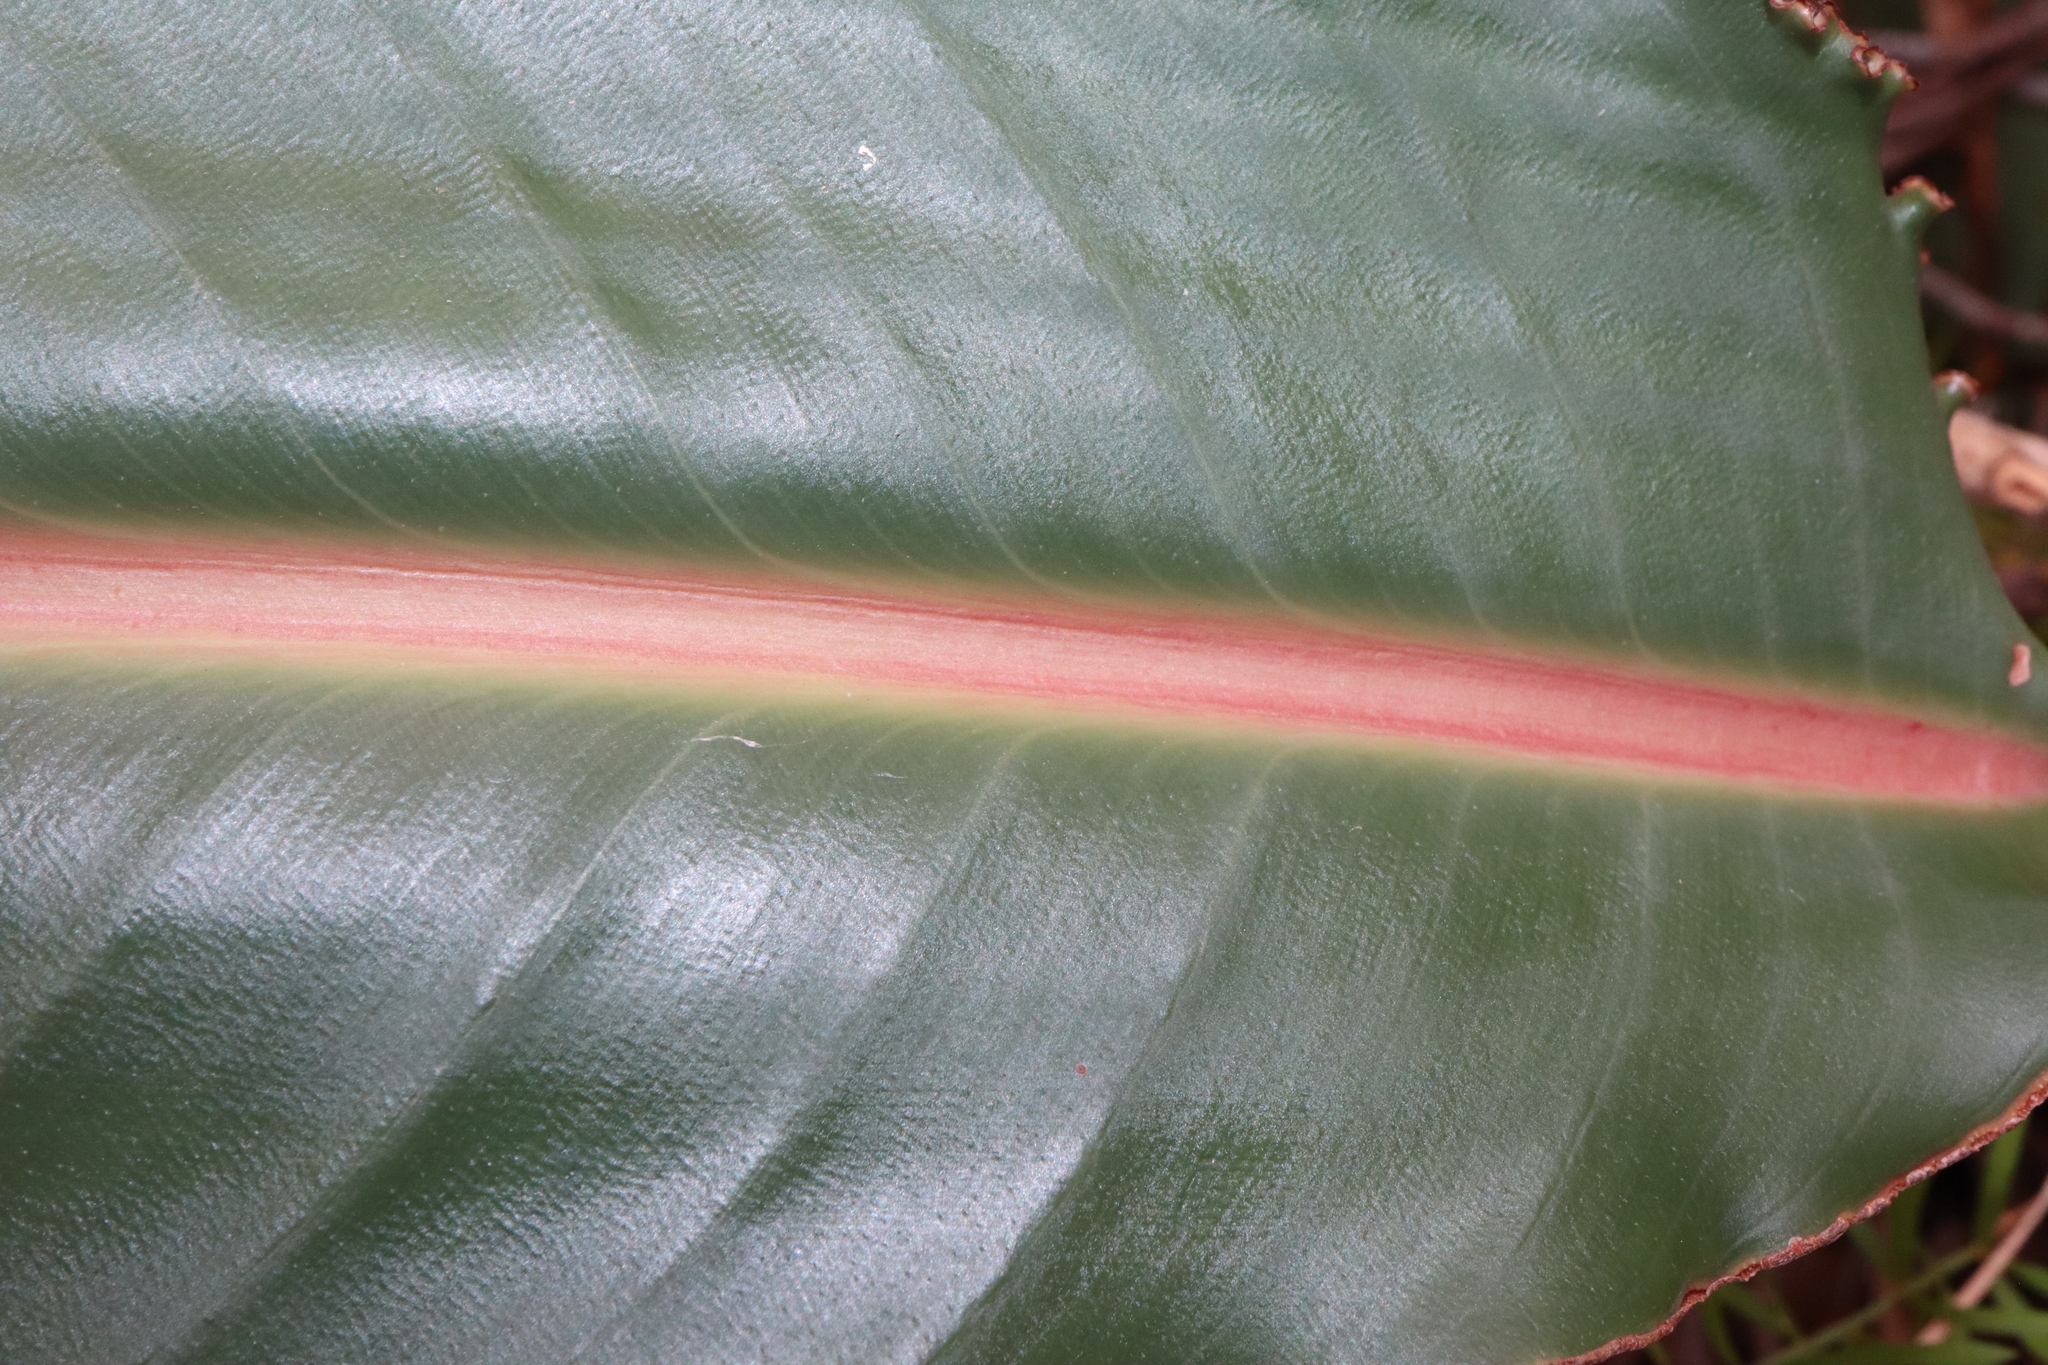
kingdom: Plantae
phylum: Tracheophyta
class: Liliopsida
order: Zingiberales
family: Strelitziaceae
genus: Strelitzia
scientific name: Strelitzia reginae
